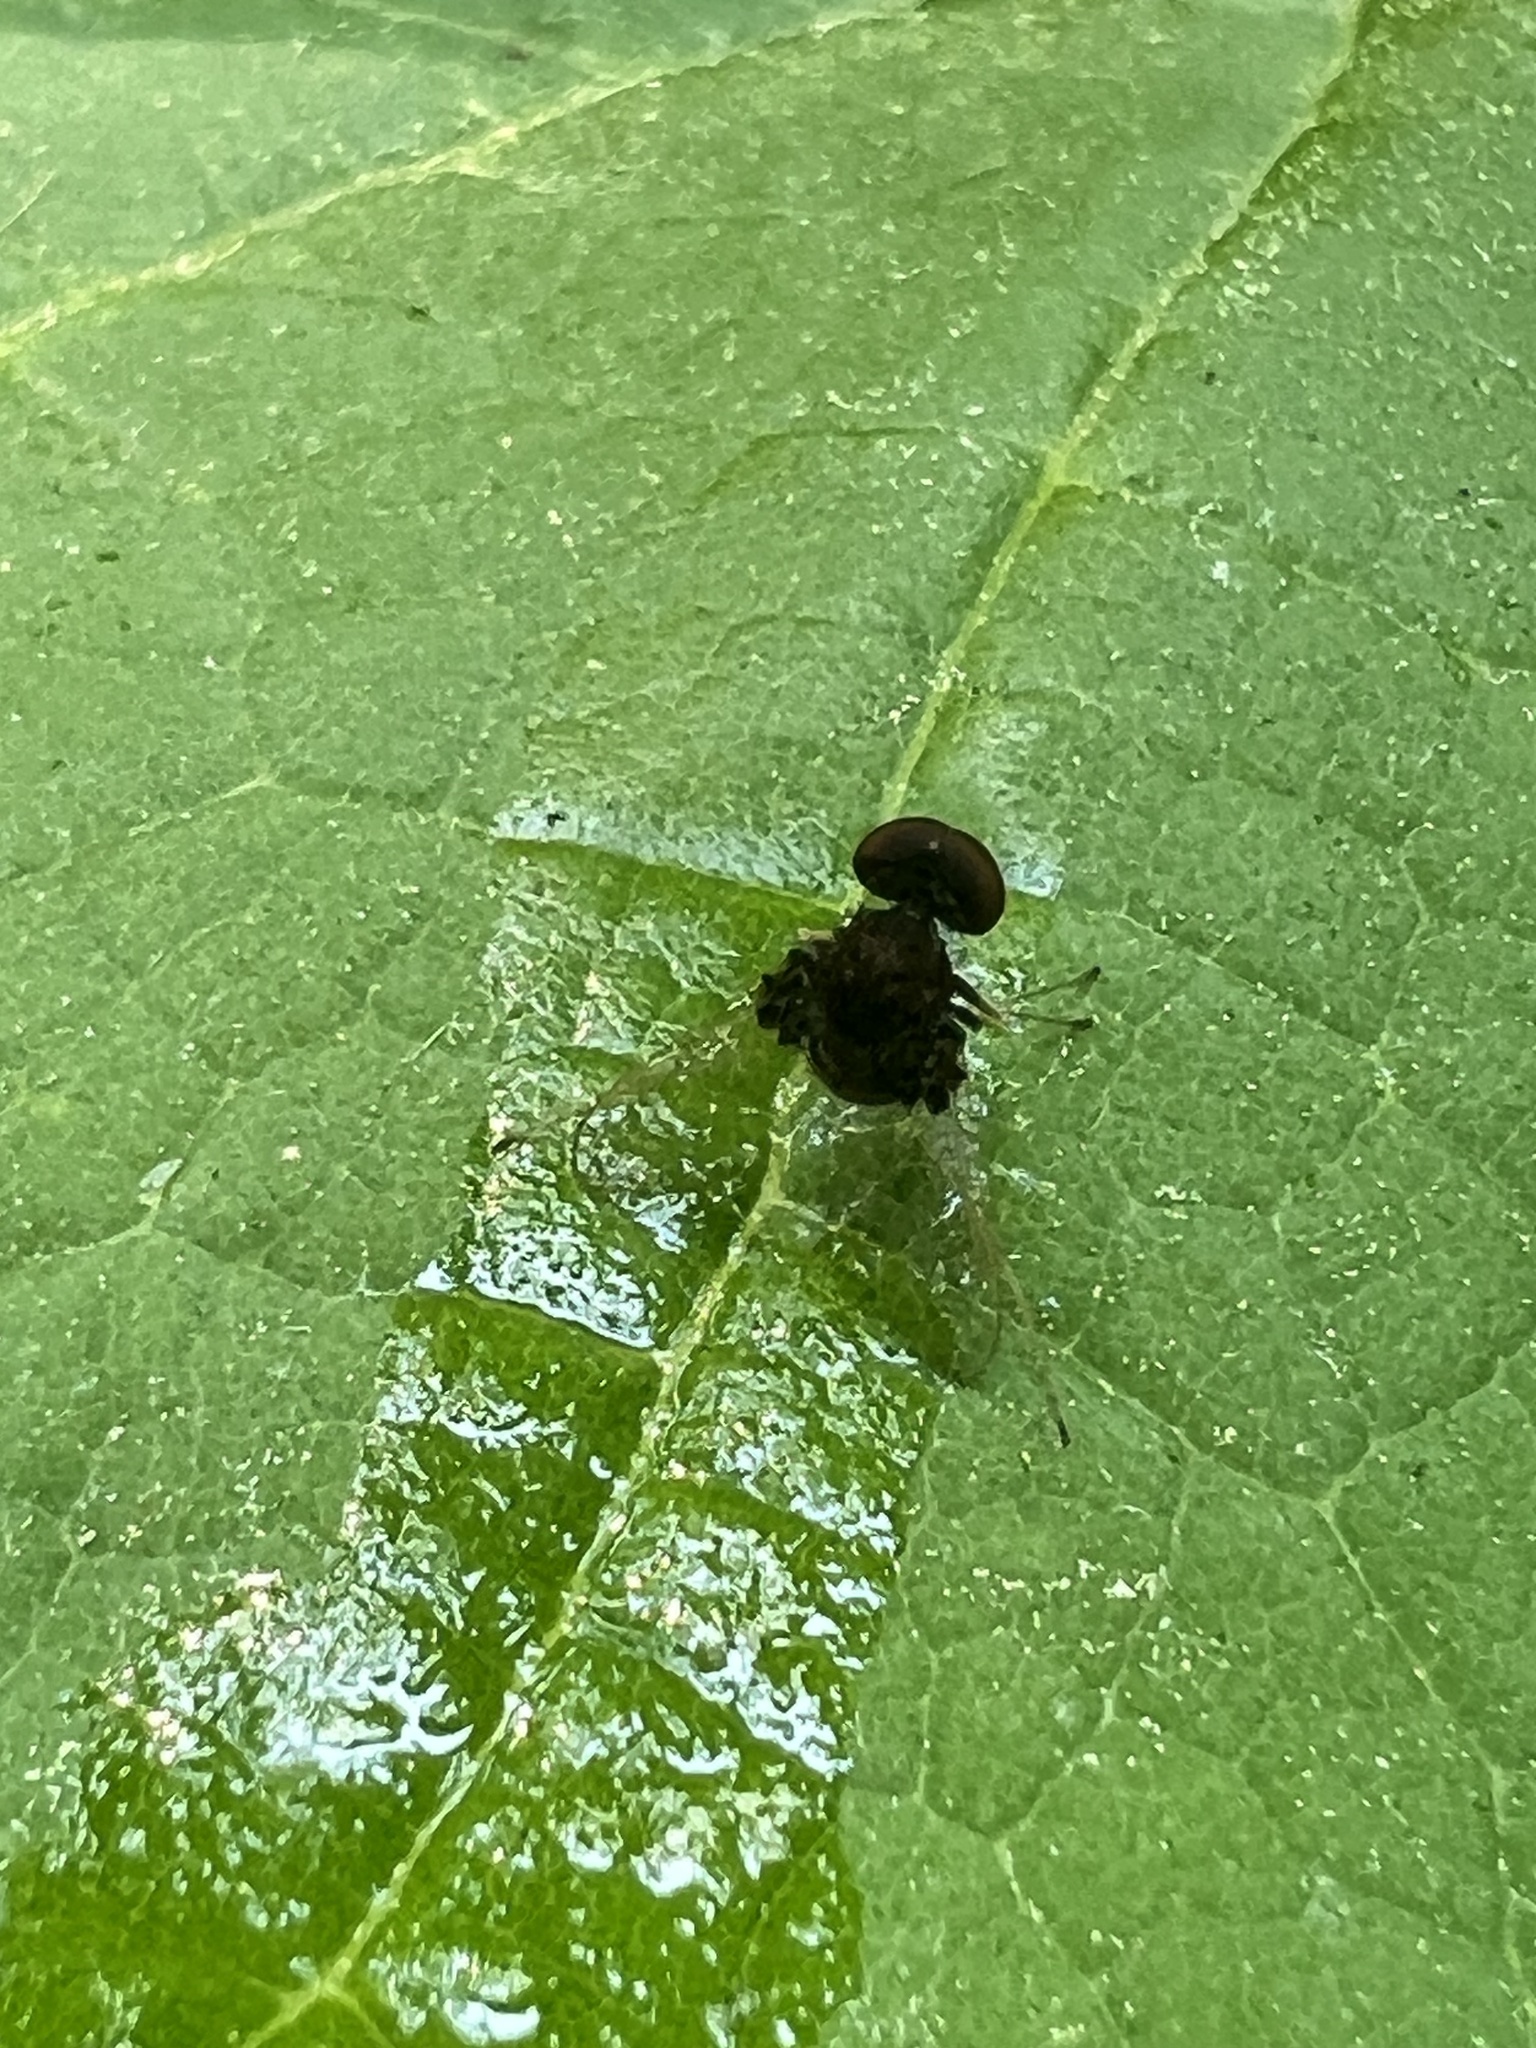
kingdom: Animalia
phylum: Arthropoda
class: Insecta
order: Diptera
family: Rhagionidae
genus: Chrysopilus
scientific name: Chrysopilus basilaris
